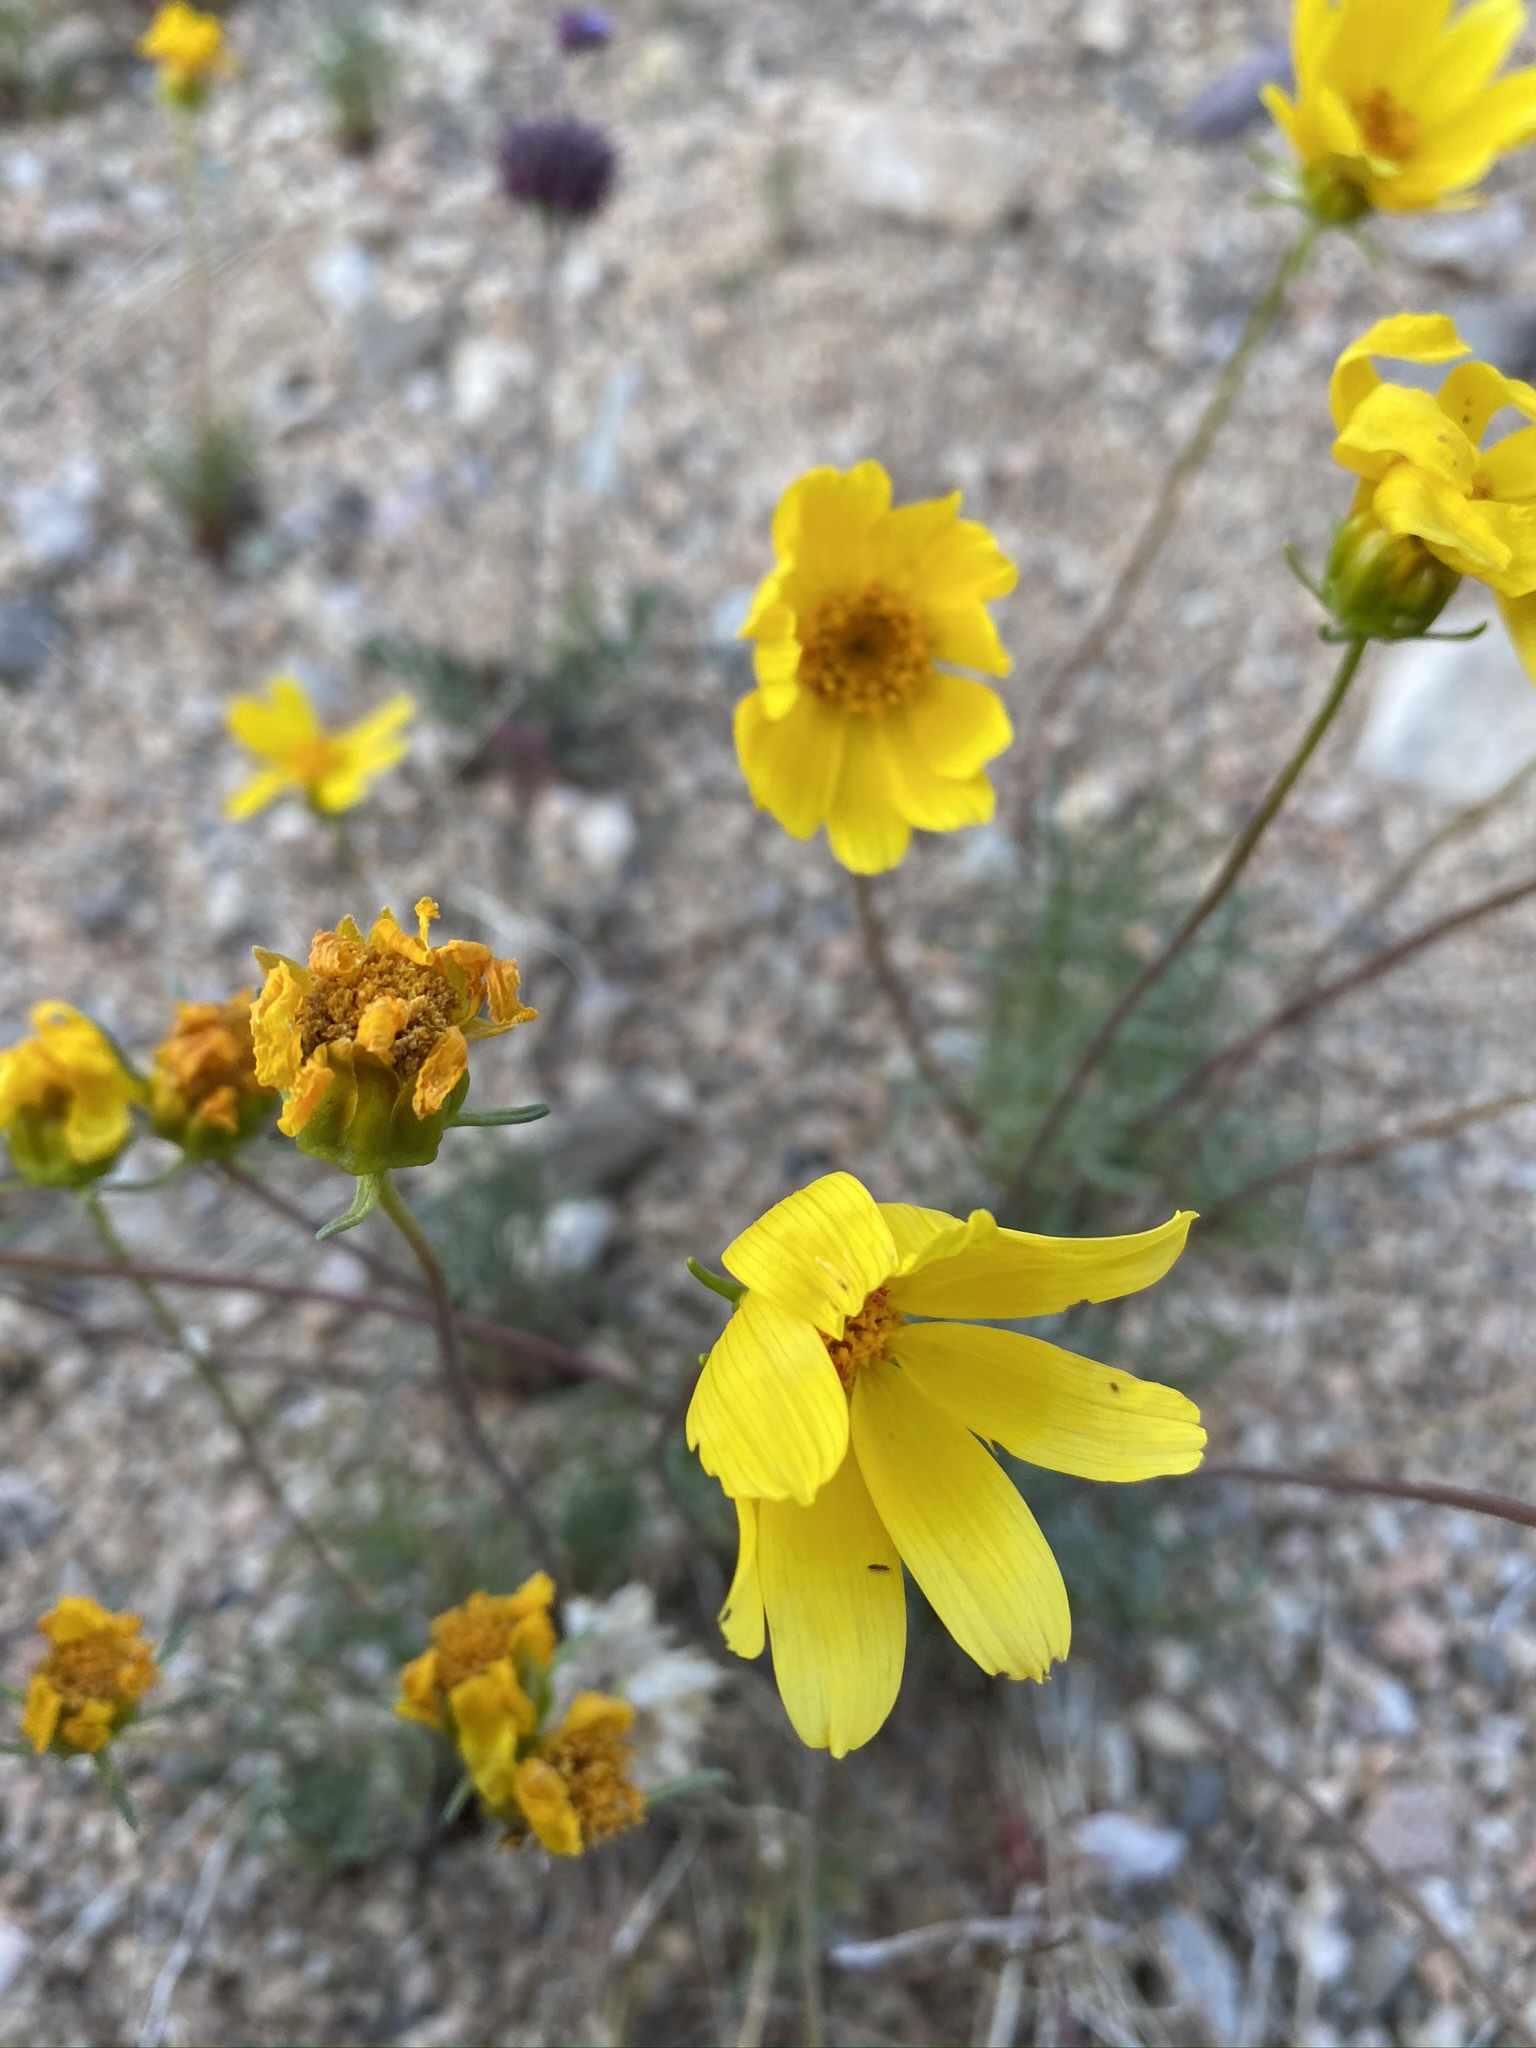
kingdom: Plantae
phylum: Tracheophyta
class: Magnoliopsida
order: Asterales
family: Asteraceae
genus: Coreopsis
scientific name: Coreopsis bigelovii
